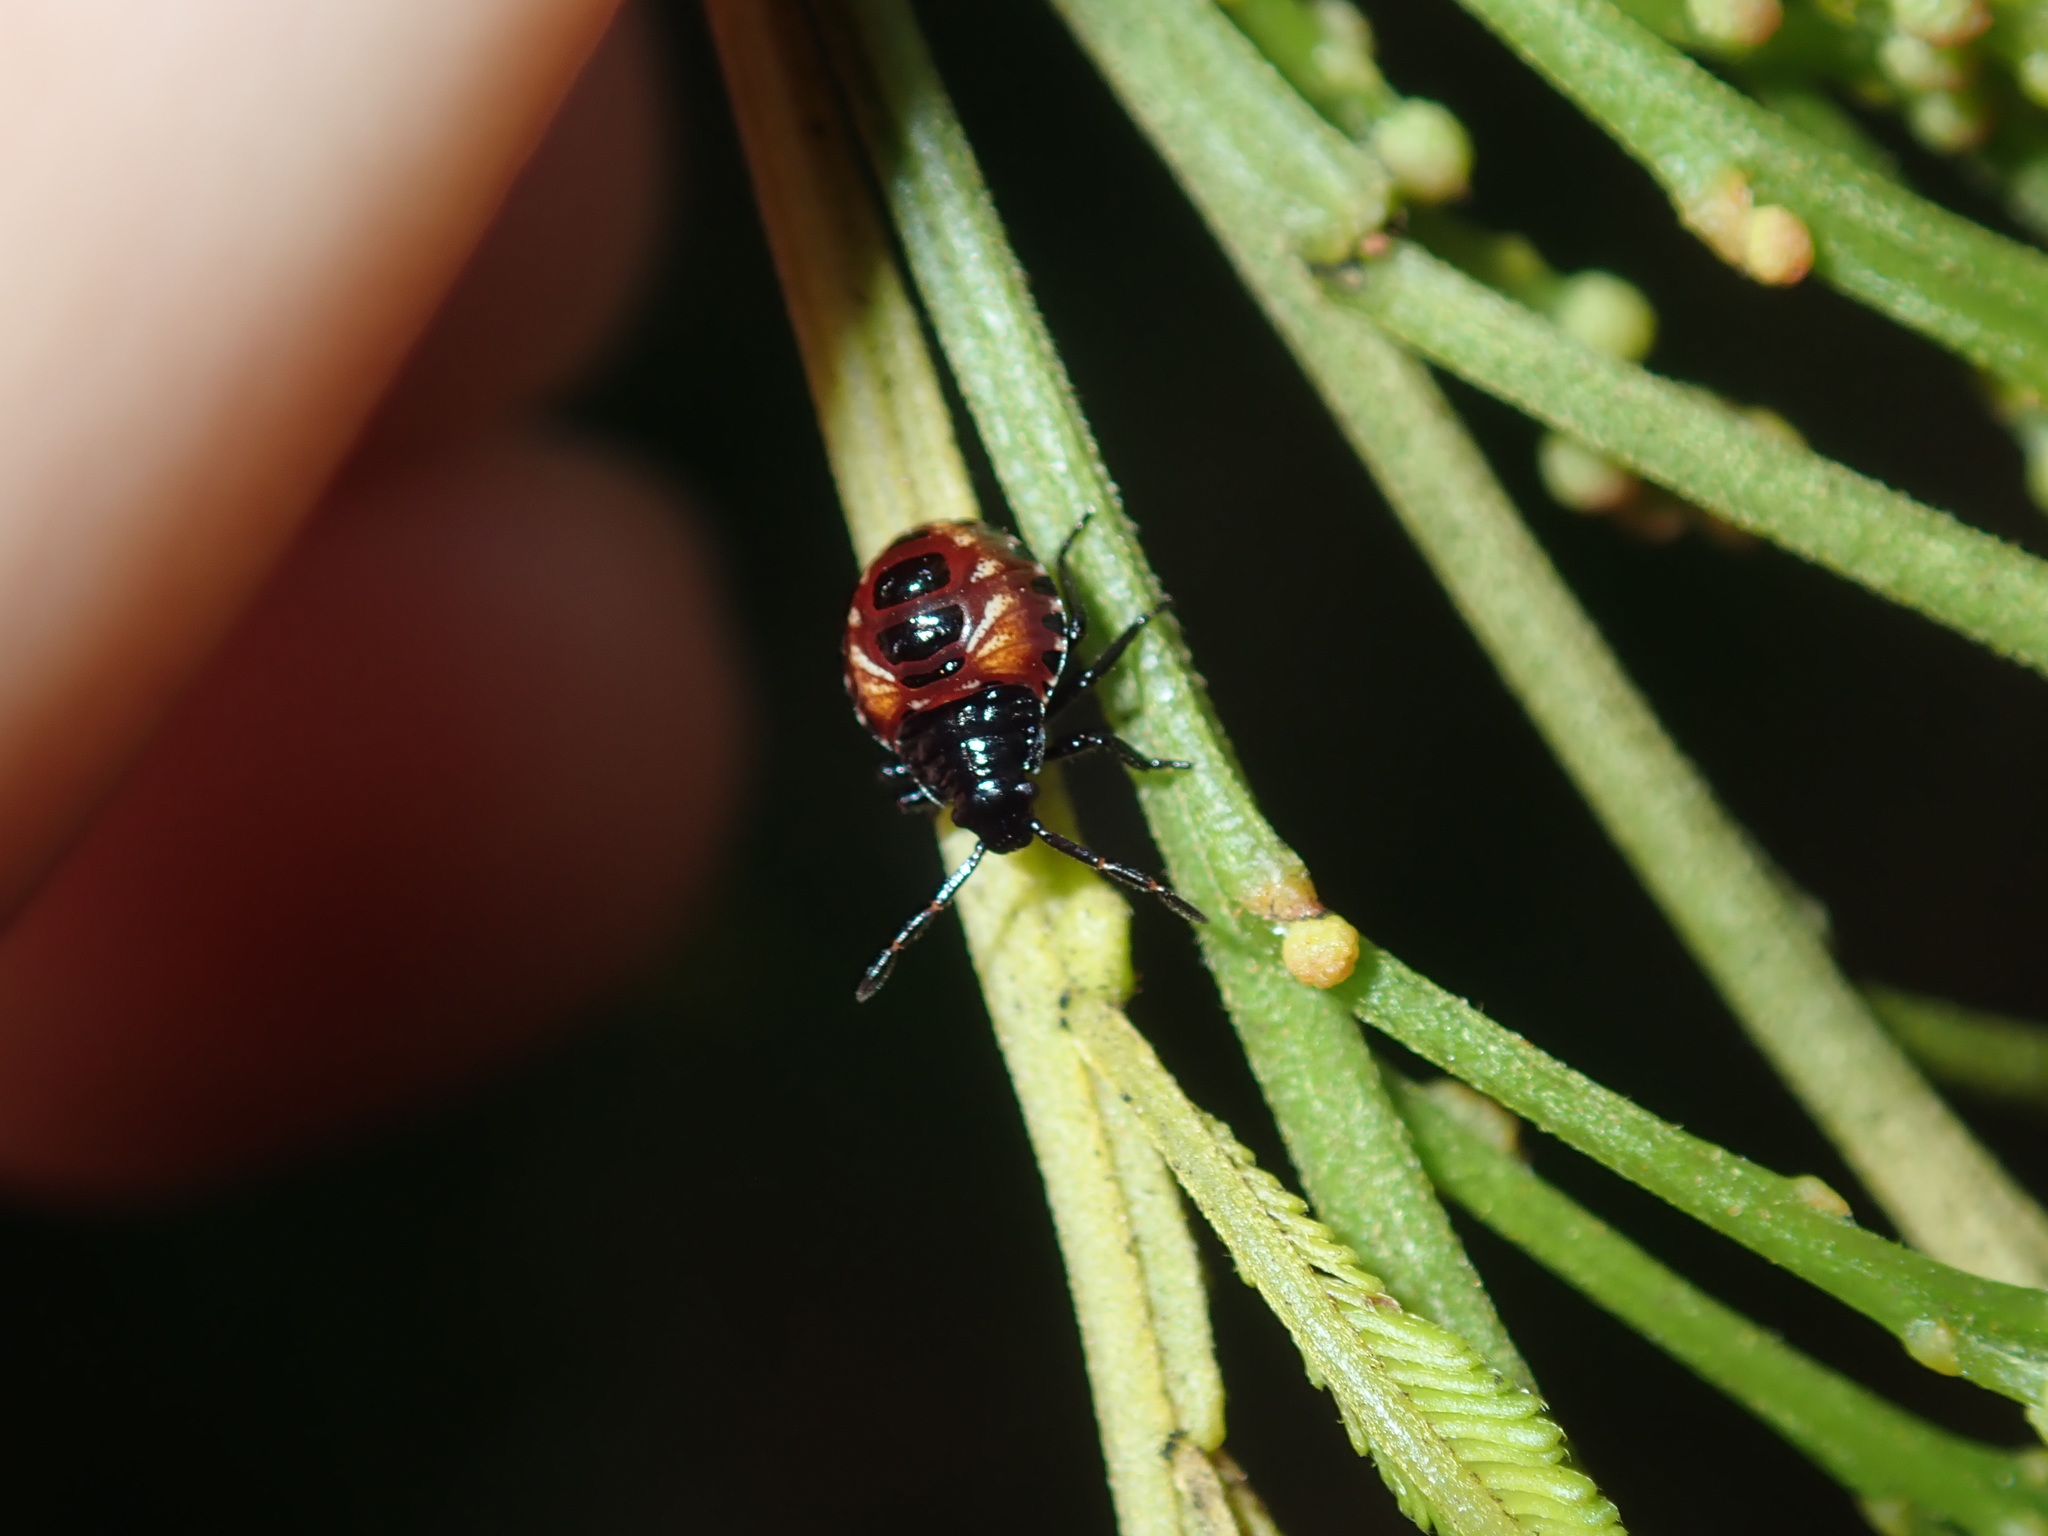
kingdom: Animalia
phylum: Arthropoda
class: Insecta
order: Hemiptera
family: Pentatomidae
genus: Oechalia
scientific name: Oechalia schellenbergii
